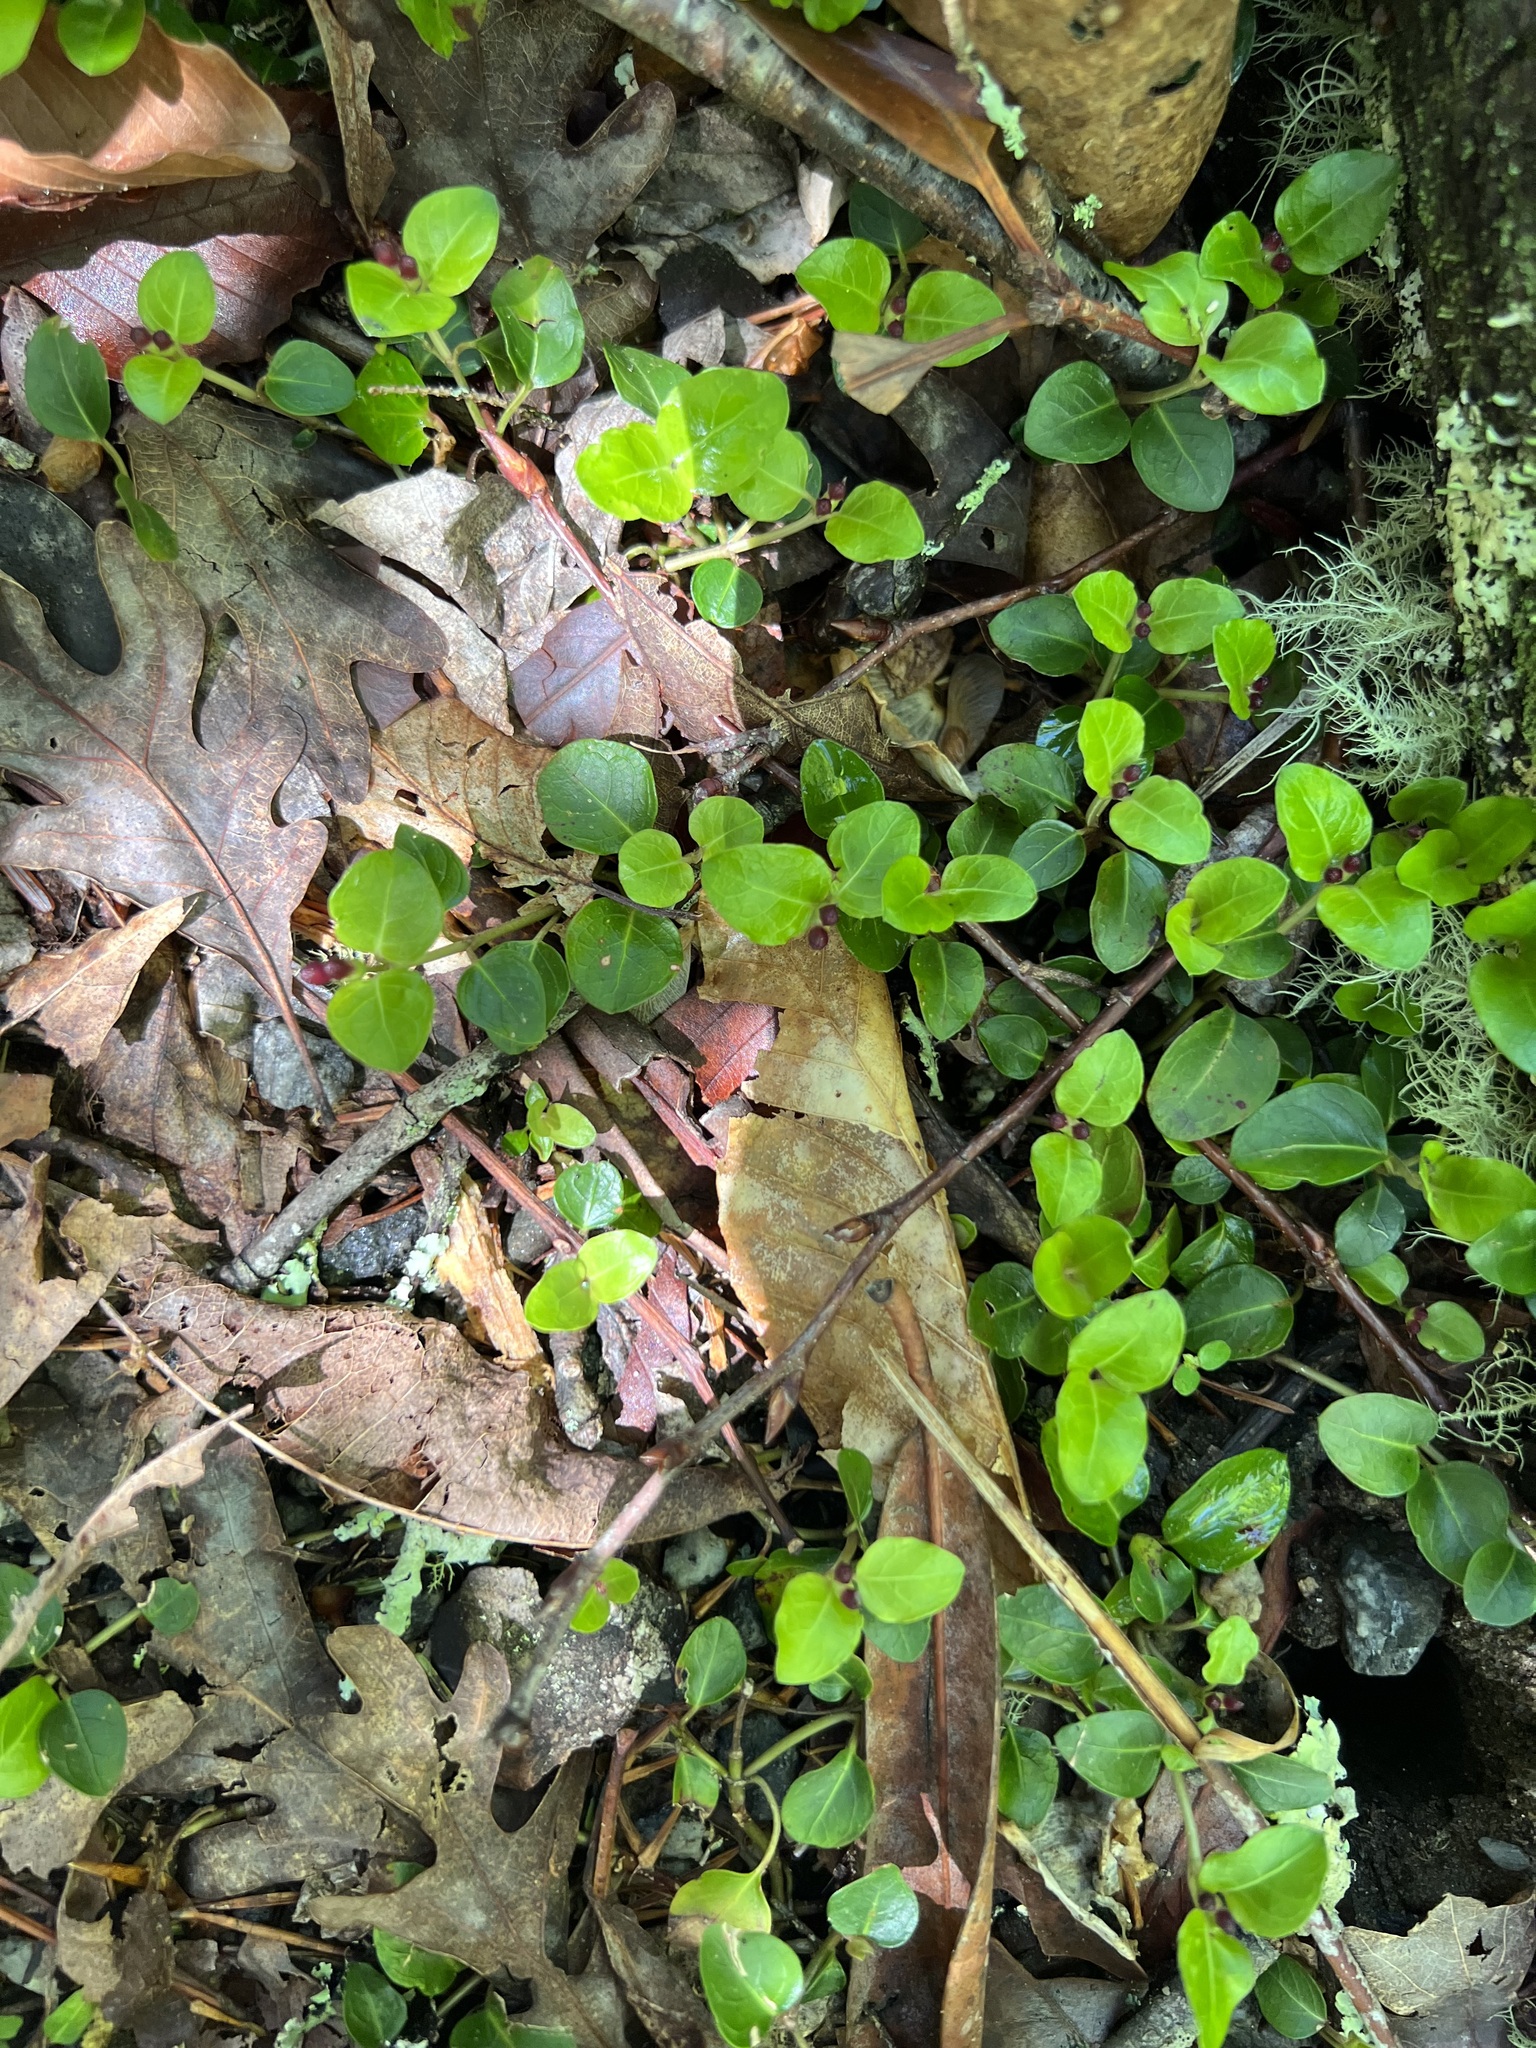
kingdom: Plantae
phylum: Tracheophyta
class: Magnoliopsida
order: Gentianales
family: Rubiaceae
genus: Mitchella
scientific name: Mitchella repens
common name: Partridge-berry
